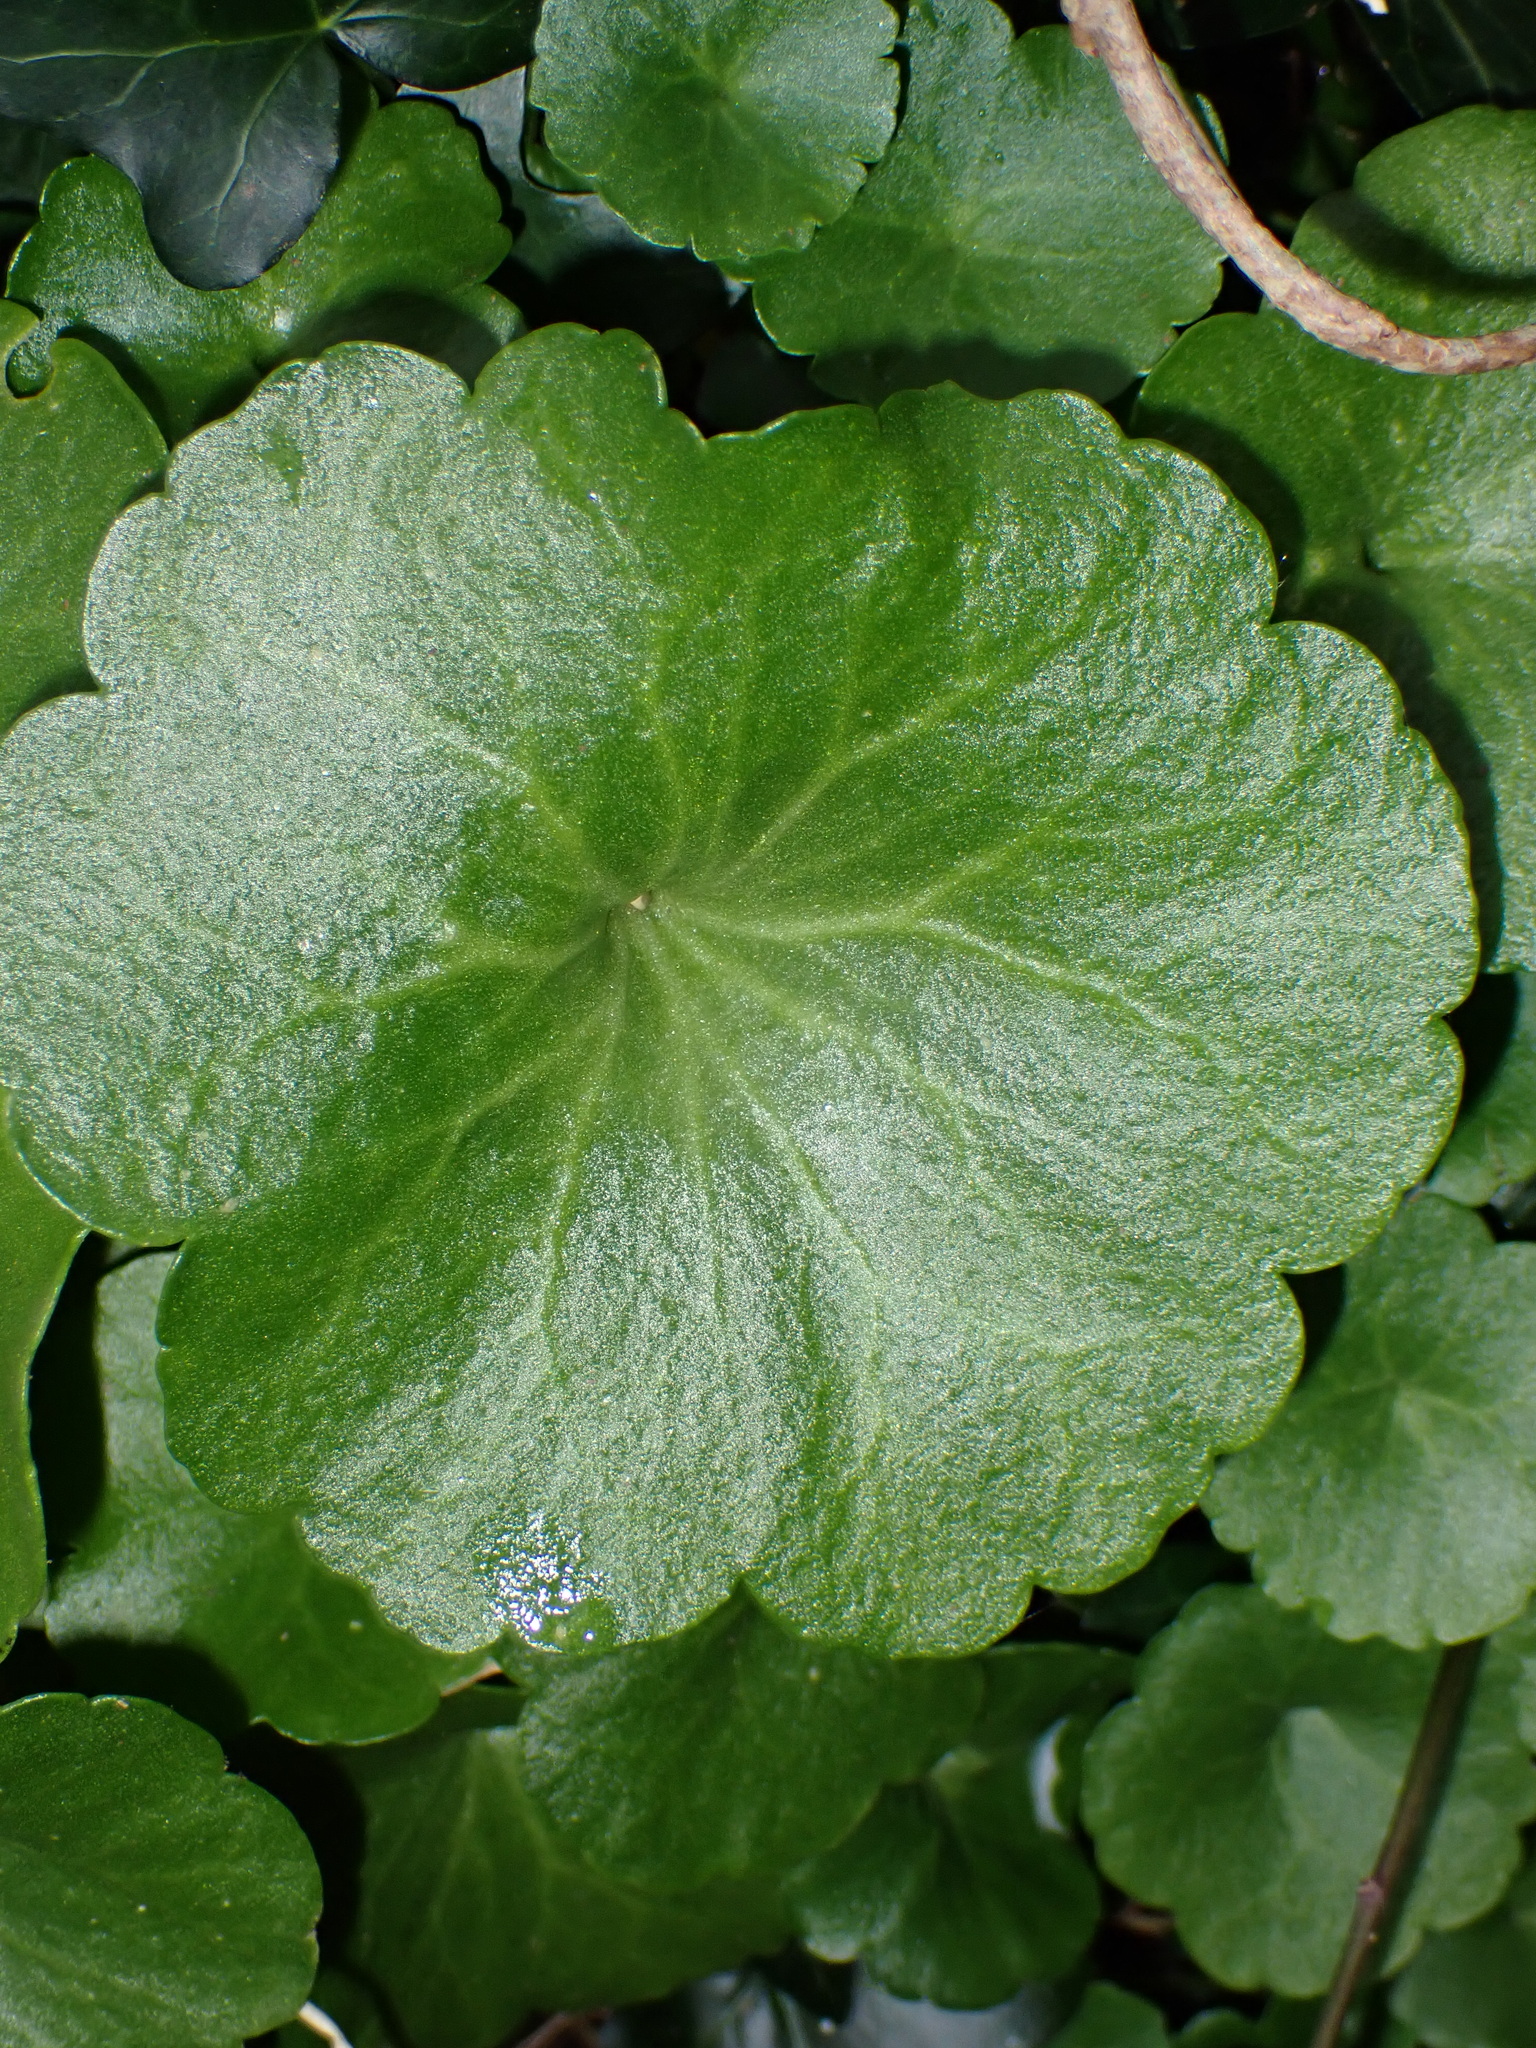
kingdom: Plantae
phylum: Tracheophyta
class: Magnoliopsida
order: Saxifragales
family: Crassulaceae
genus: Umbilicus
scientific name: Umbilicus rupestris
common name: Navelwort
